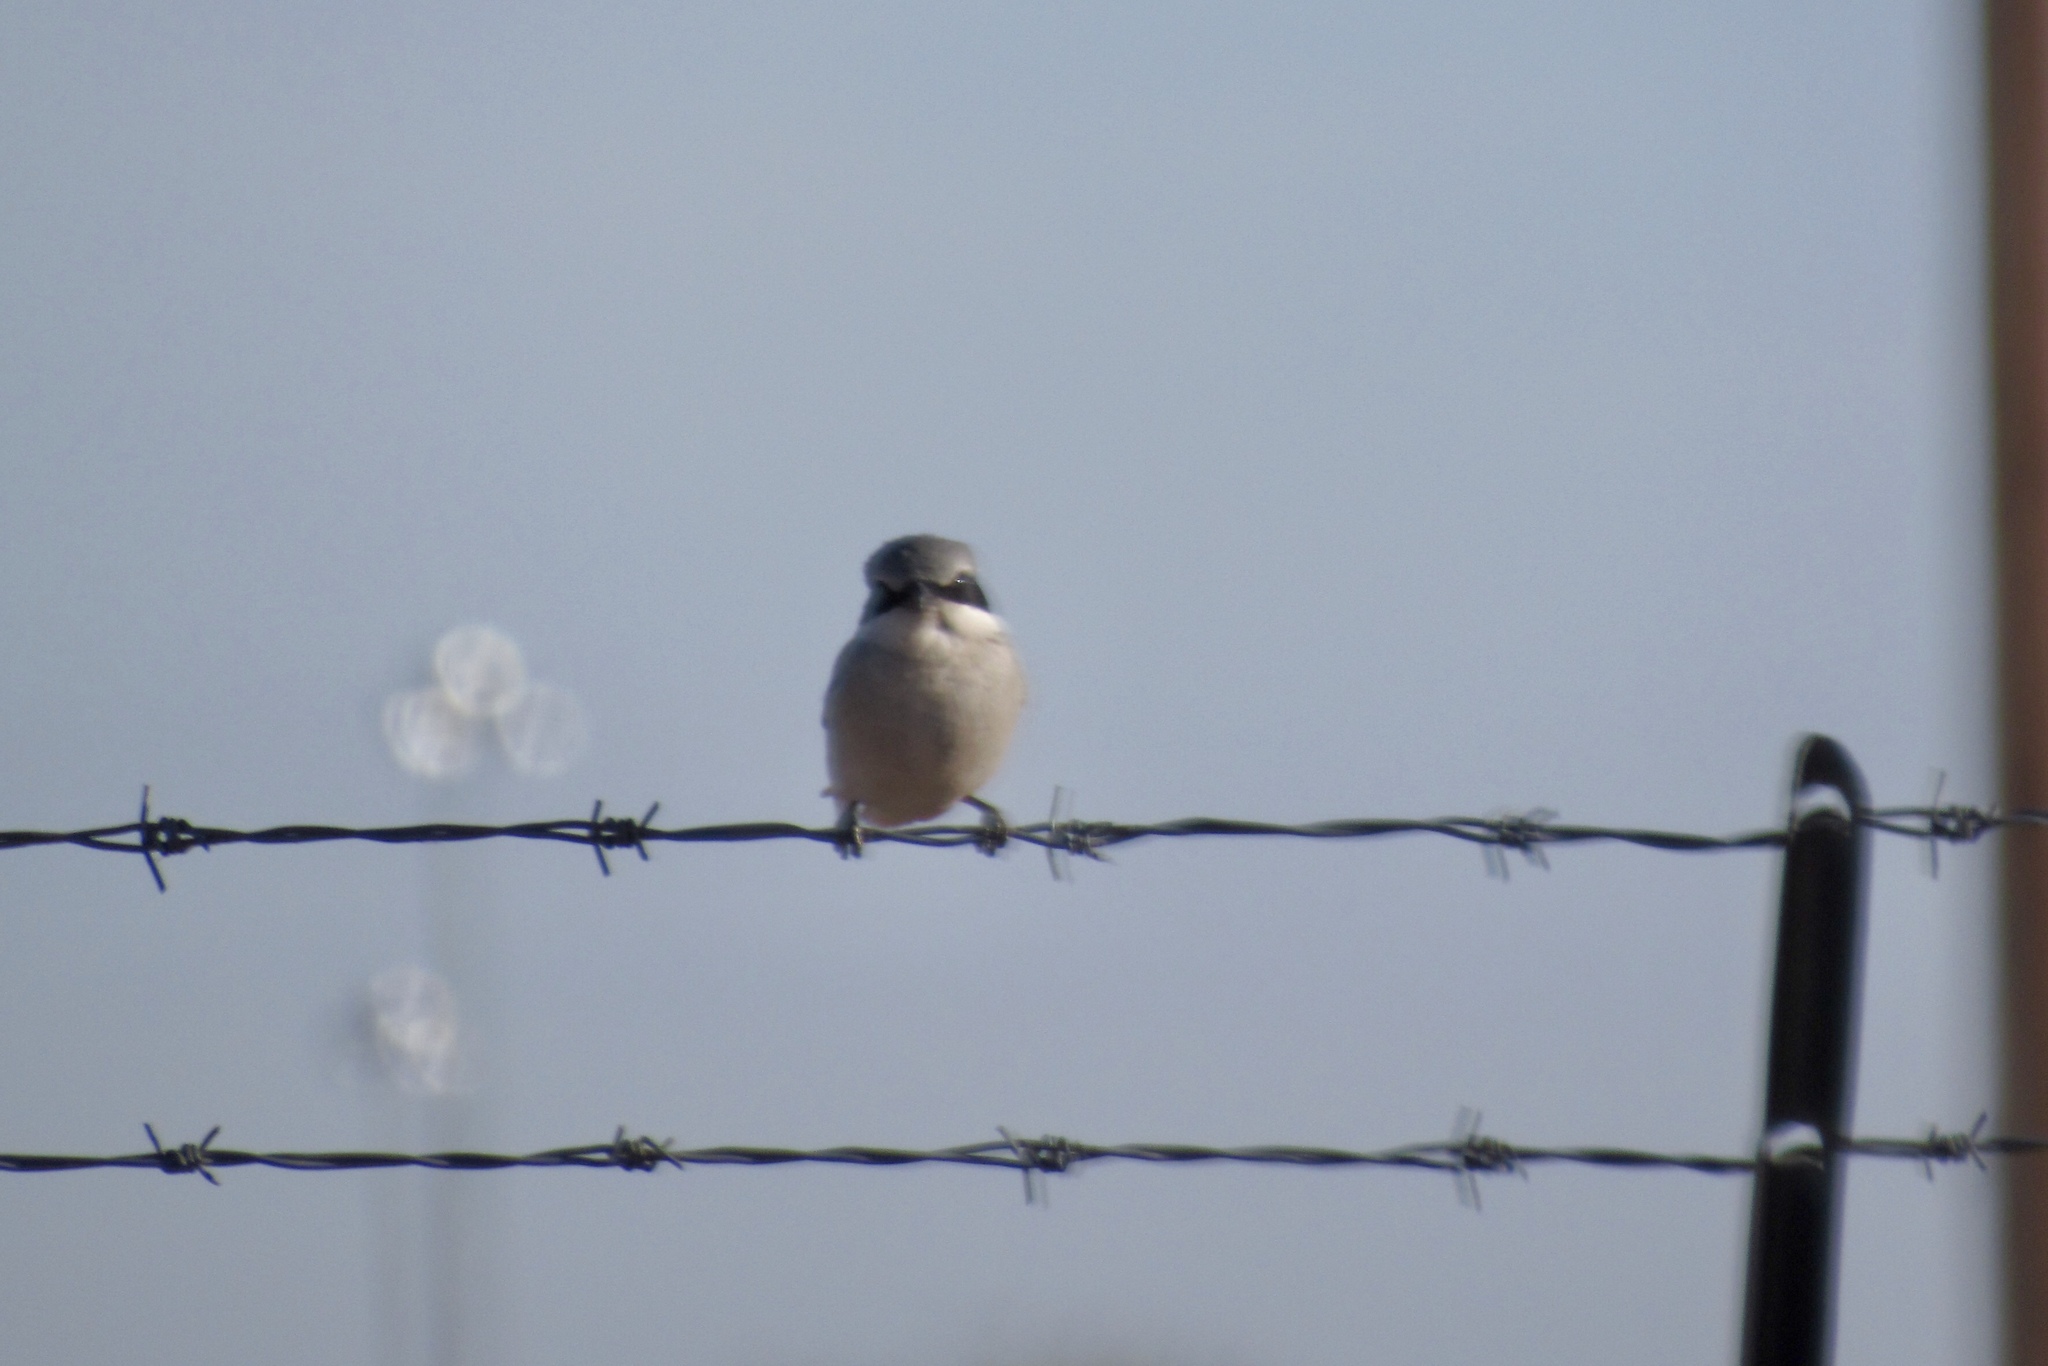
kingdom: Animalia
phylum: Chordata
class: Aves
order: Passeriformes
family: Laniidae
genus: Lanius
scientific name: Lanius ludovicianus
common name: Loggerhead shrike
